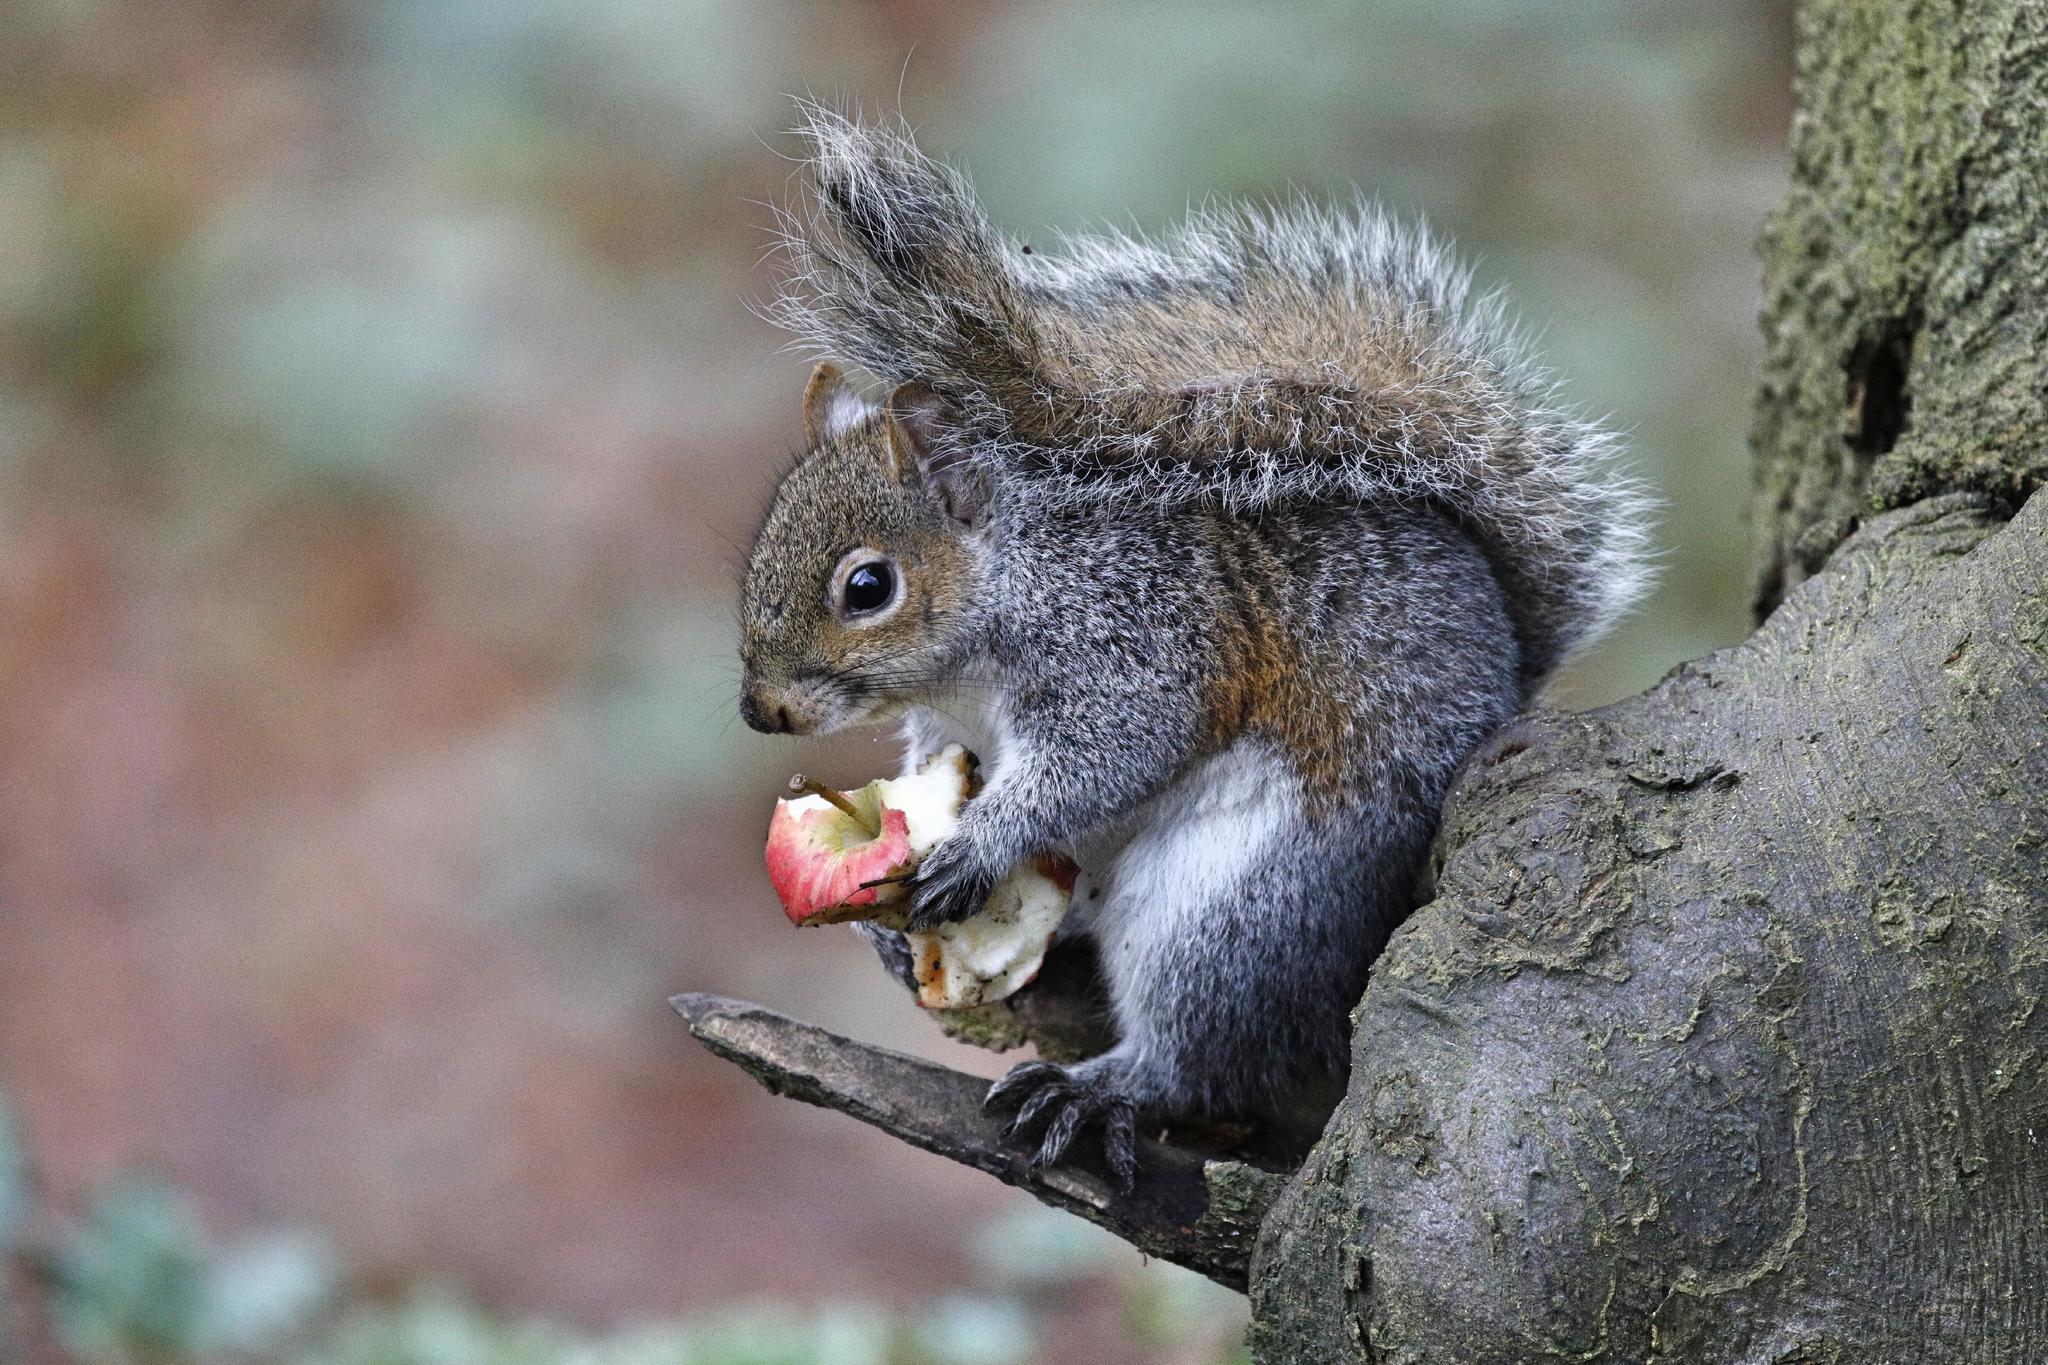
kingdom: Animalia
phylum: Chordata
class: Mammalia
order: Rodentia
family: Sciuridae
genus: Sciurus
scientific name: Sciurus carolinensis
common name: Eastern gray squirrel
